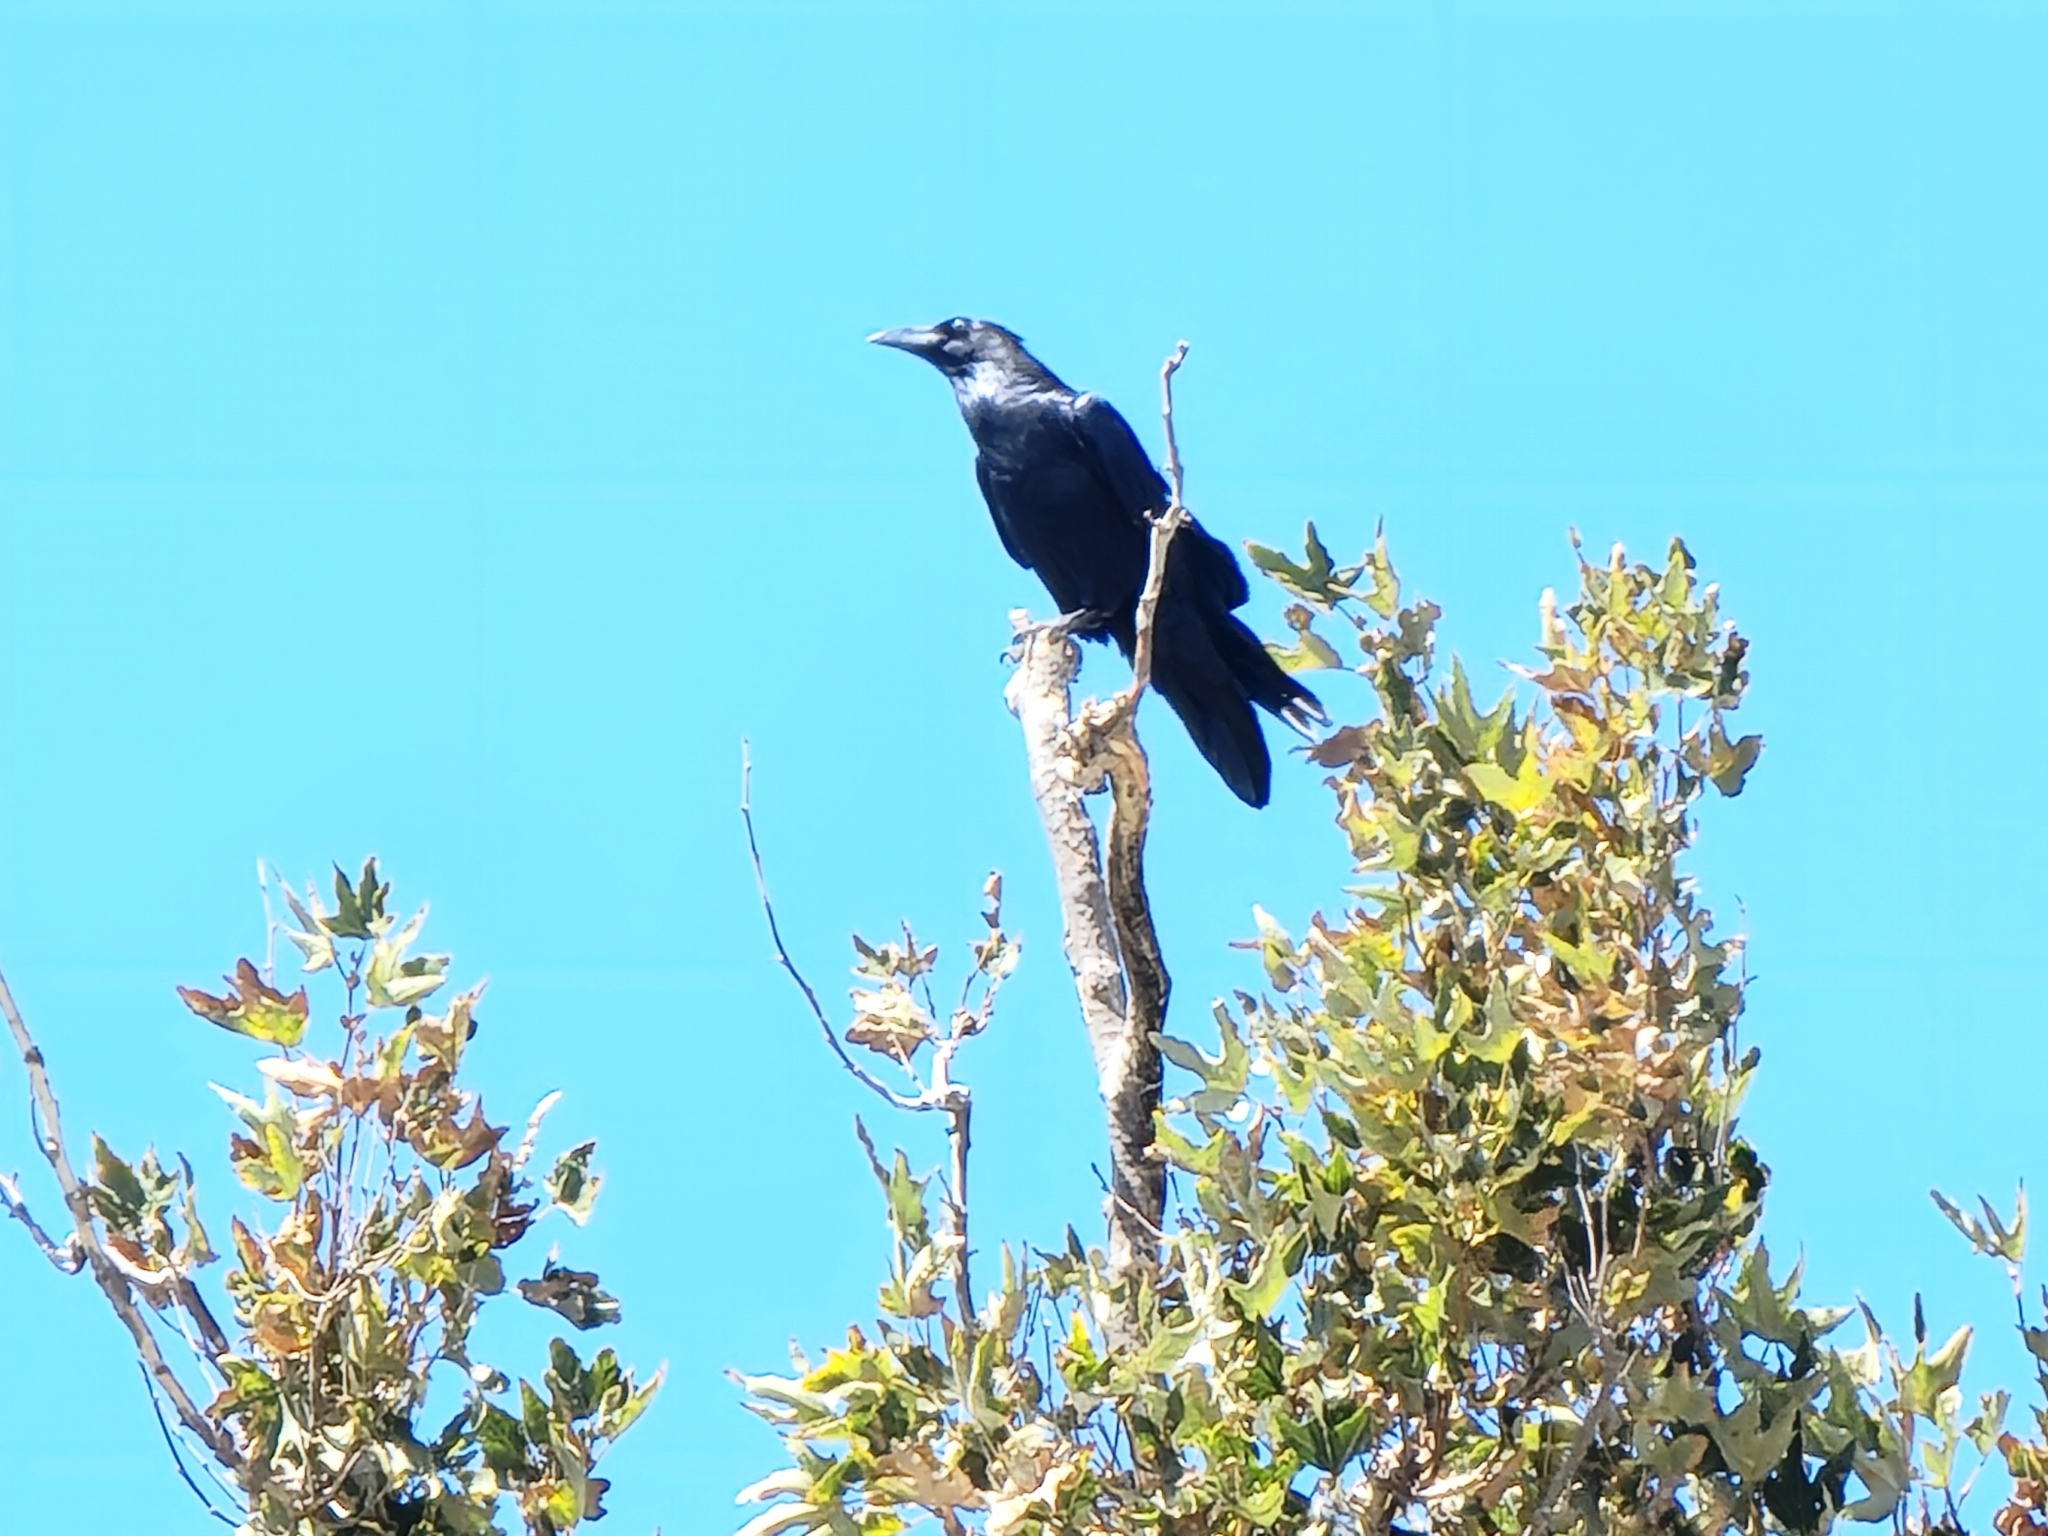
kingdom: Animalia
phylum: Chordata
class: Aves
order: Passeriformes
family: Corvidae
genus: Corvus
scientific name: Corvus corax
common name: Common raven
